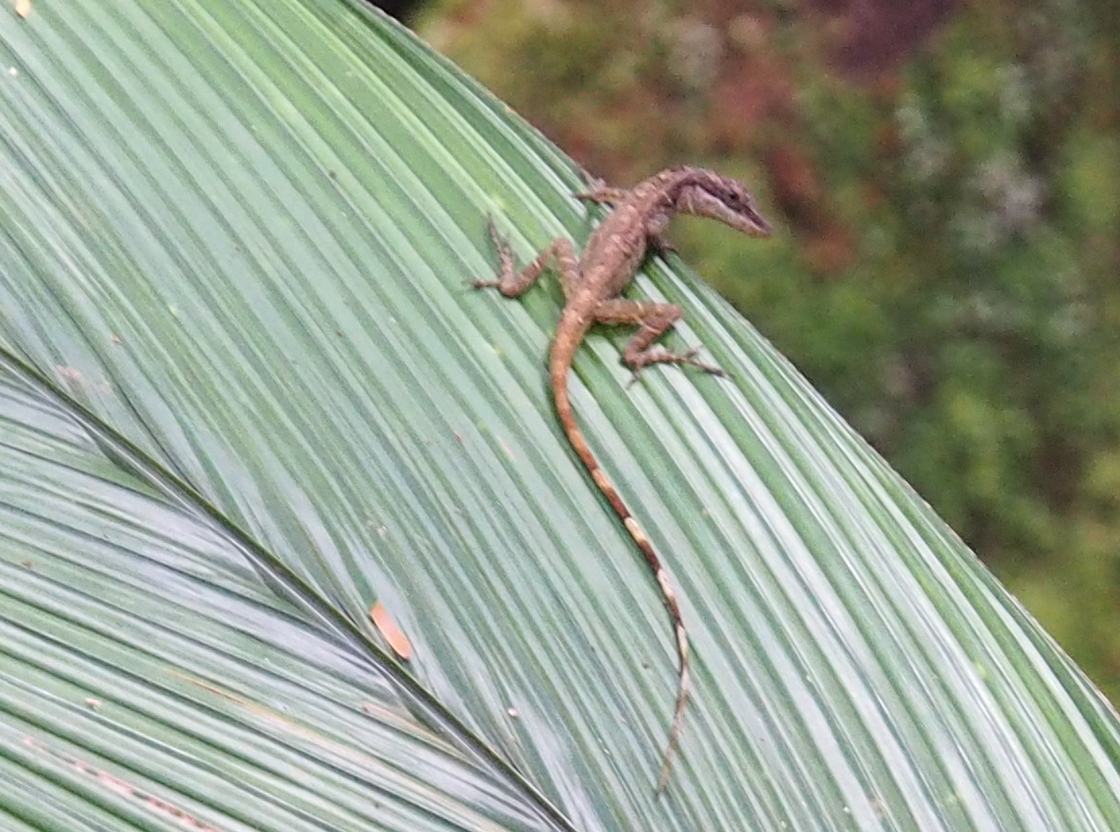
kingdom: Animalia
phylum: Chordata
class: Squamata
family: Dactyloidae
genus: Anolis
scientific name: Anolis limifrons
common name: Border anole
